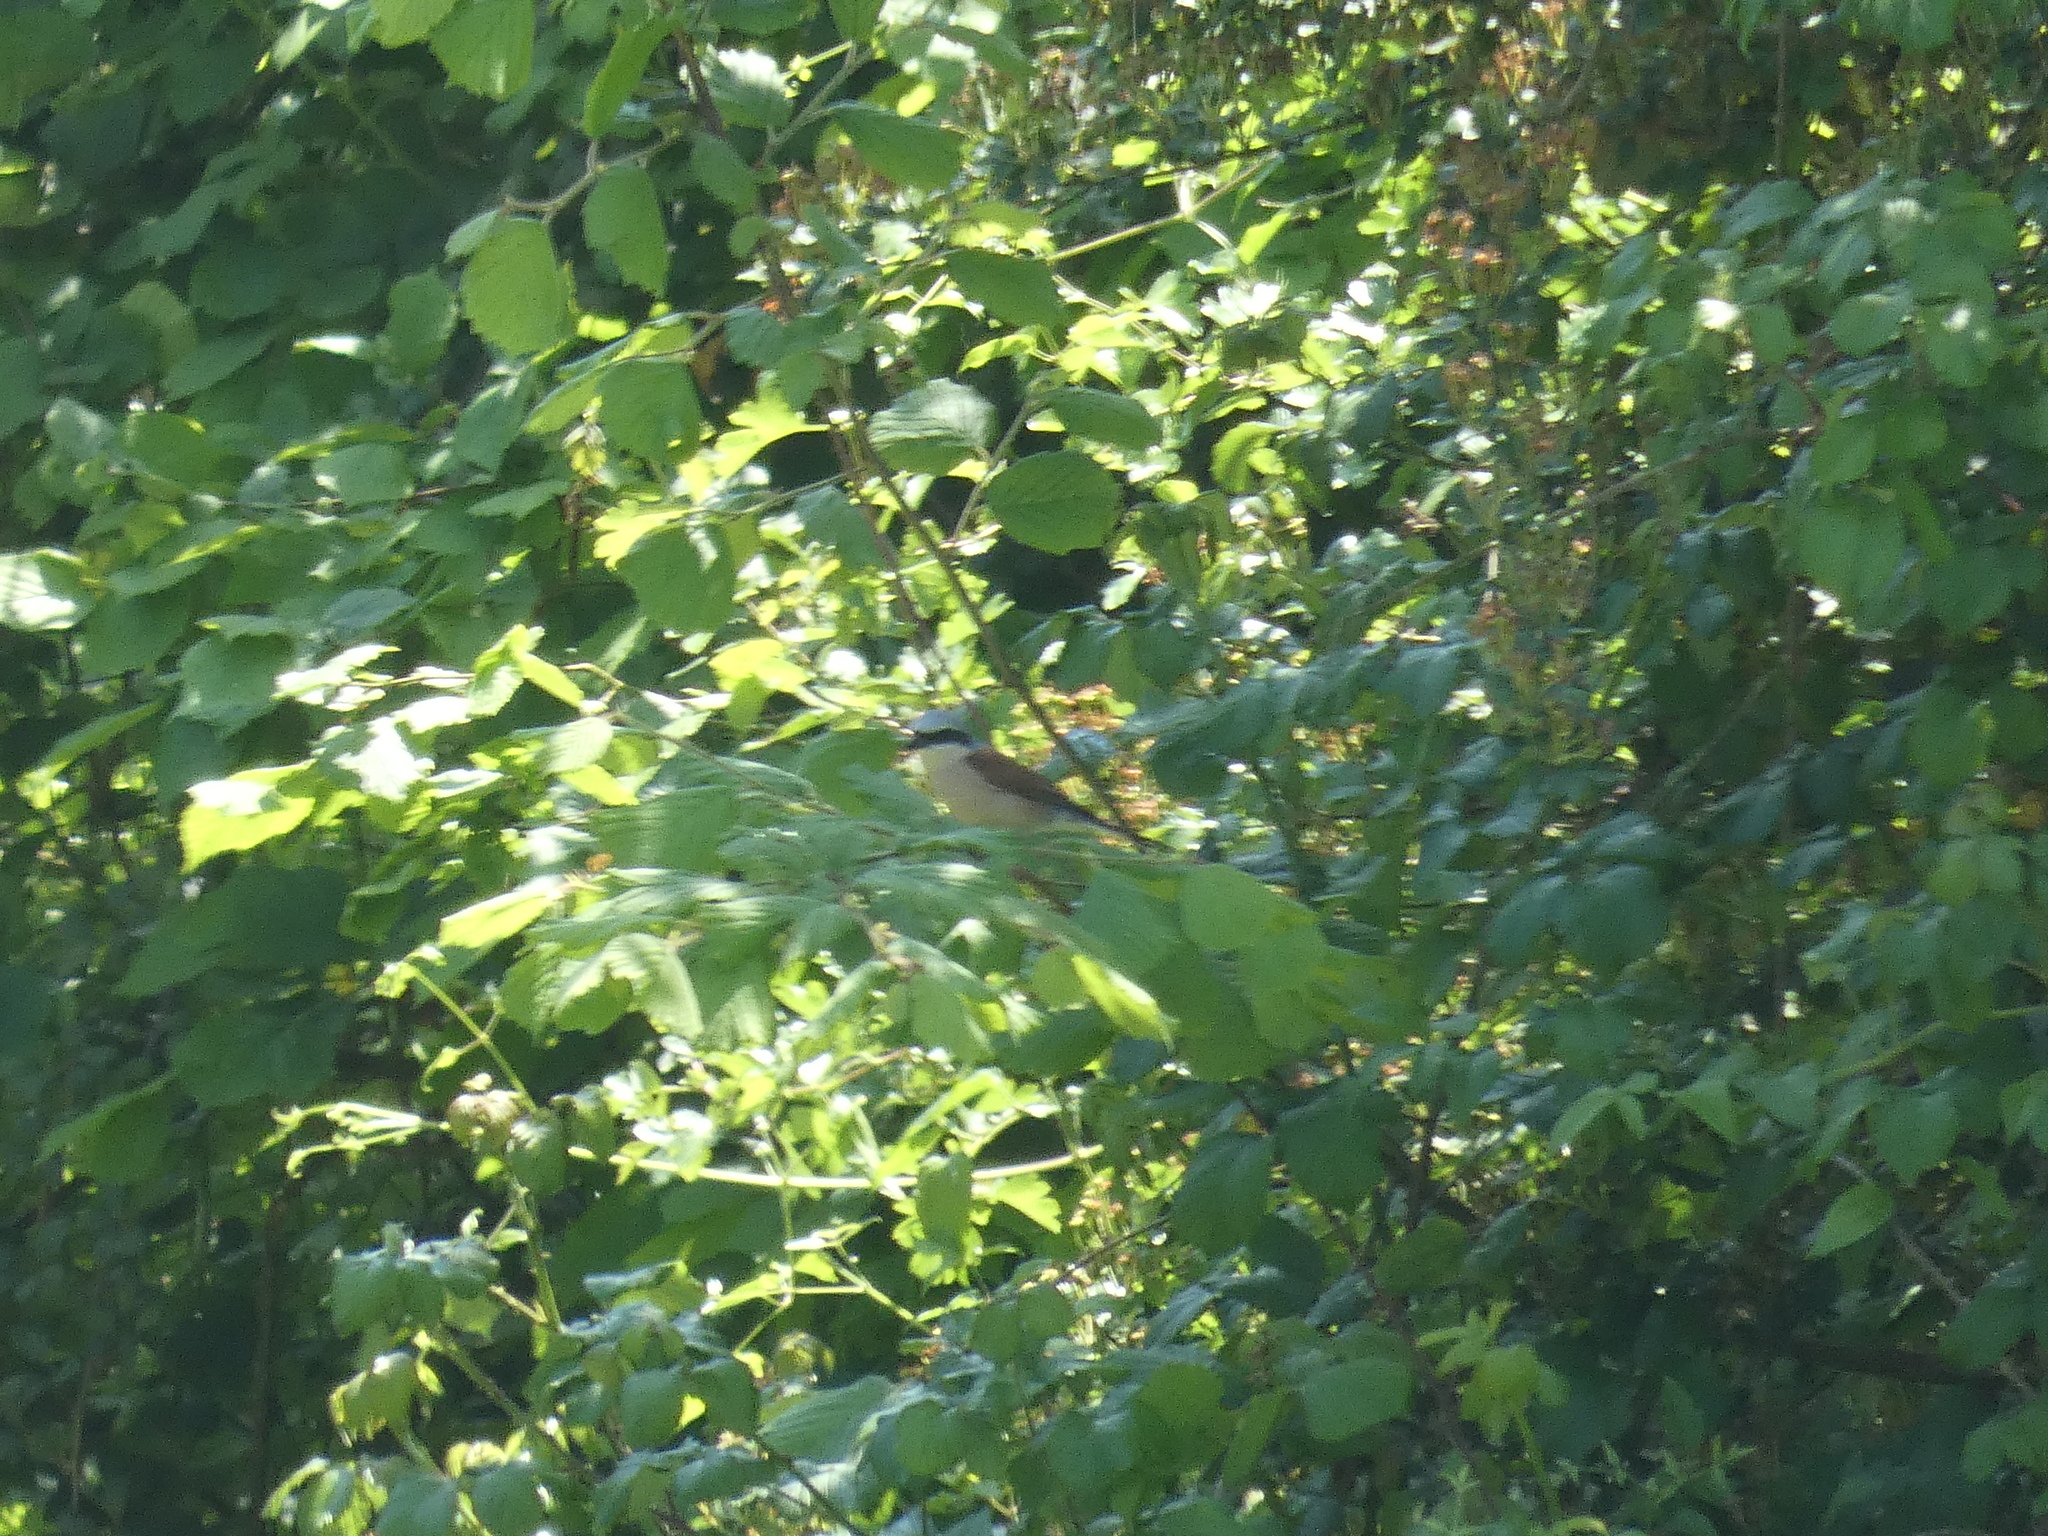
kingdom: Animalia
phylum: Chordata
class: Aves
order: Passeriformes
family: Laniidae
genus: Lanius
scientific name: Lanius collurio
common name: Red-backed shrike
